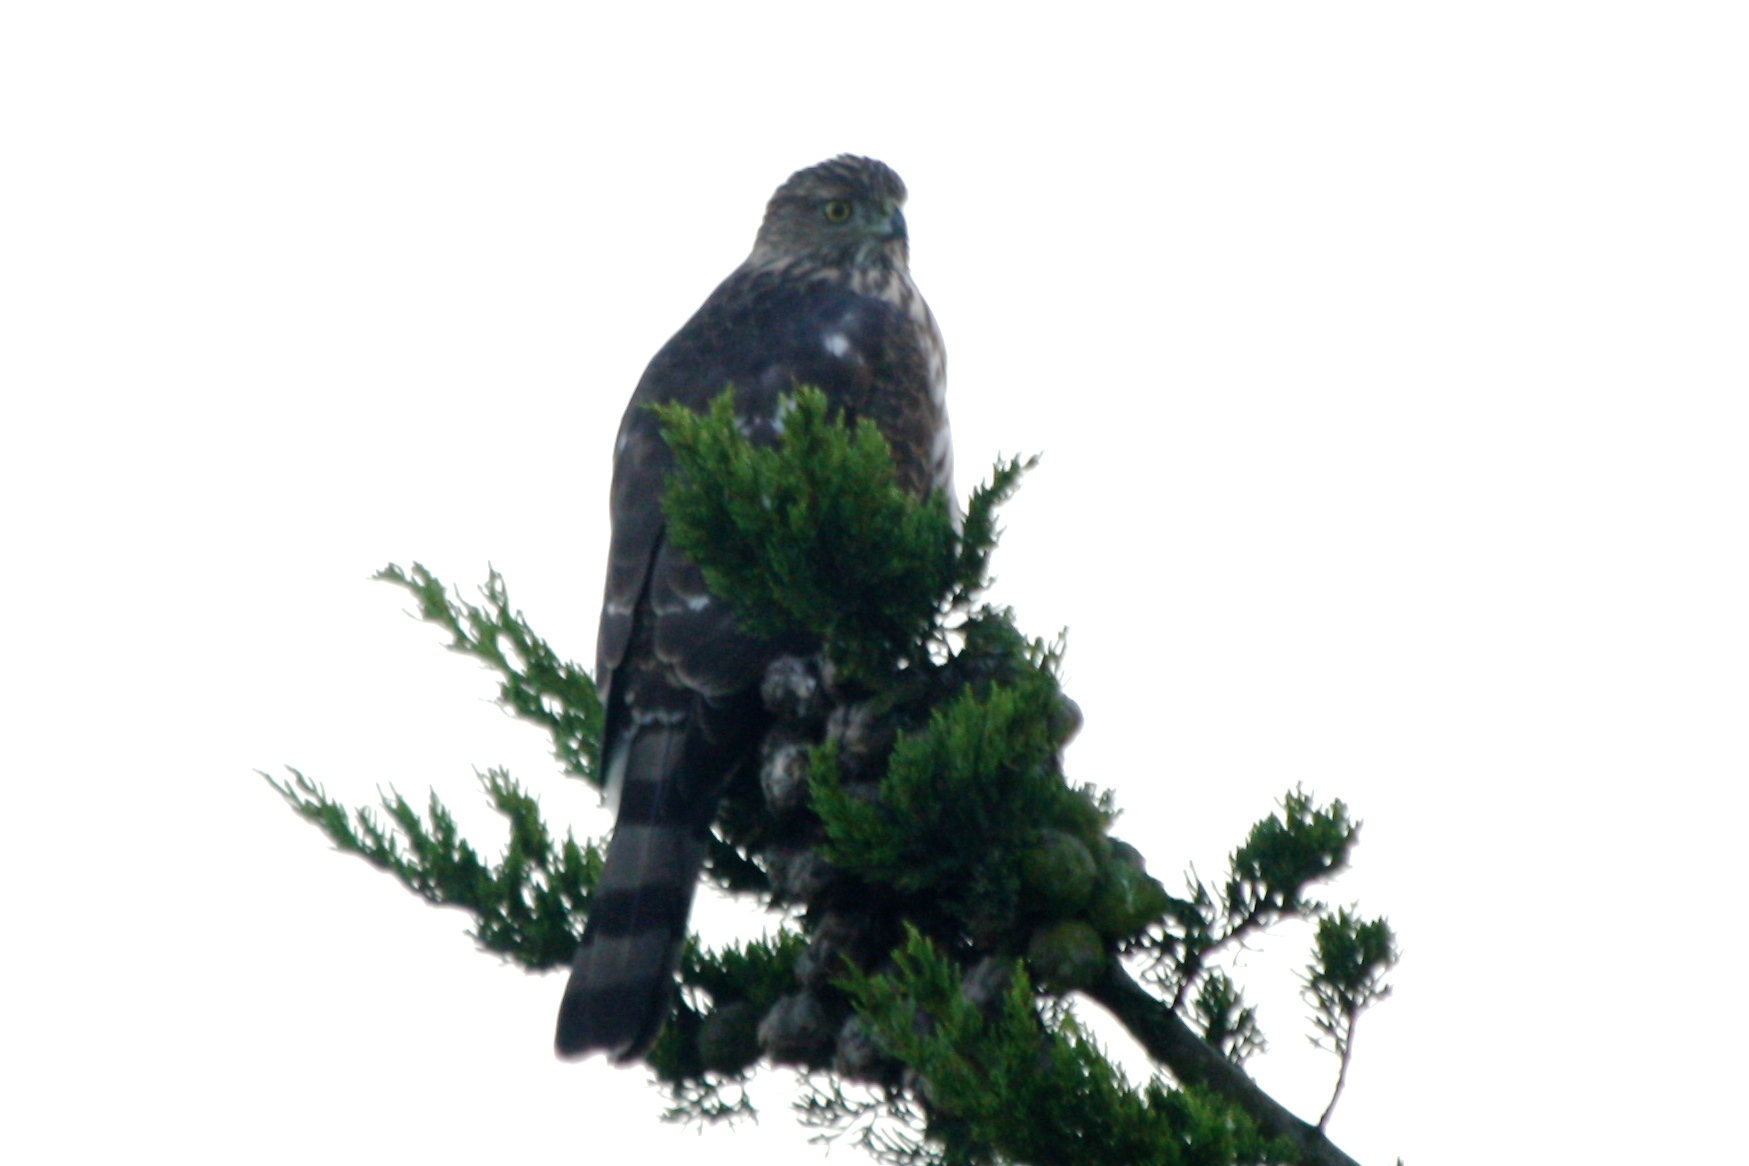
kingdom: Animalia
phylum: Chordata
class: Aves
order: Accipitriformes
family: Accipitridae
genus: Accipiter
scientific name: Accipiter cooperii
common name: Cooper's hawk
